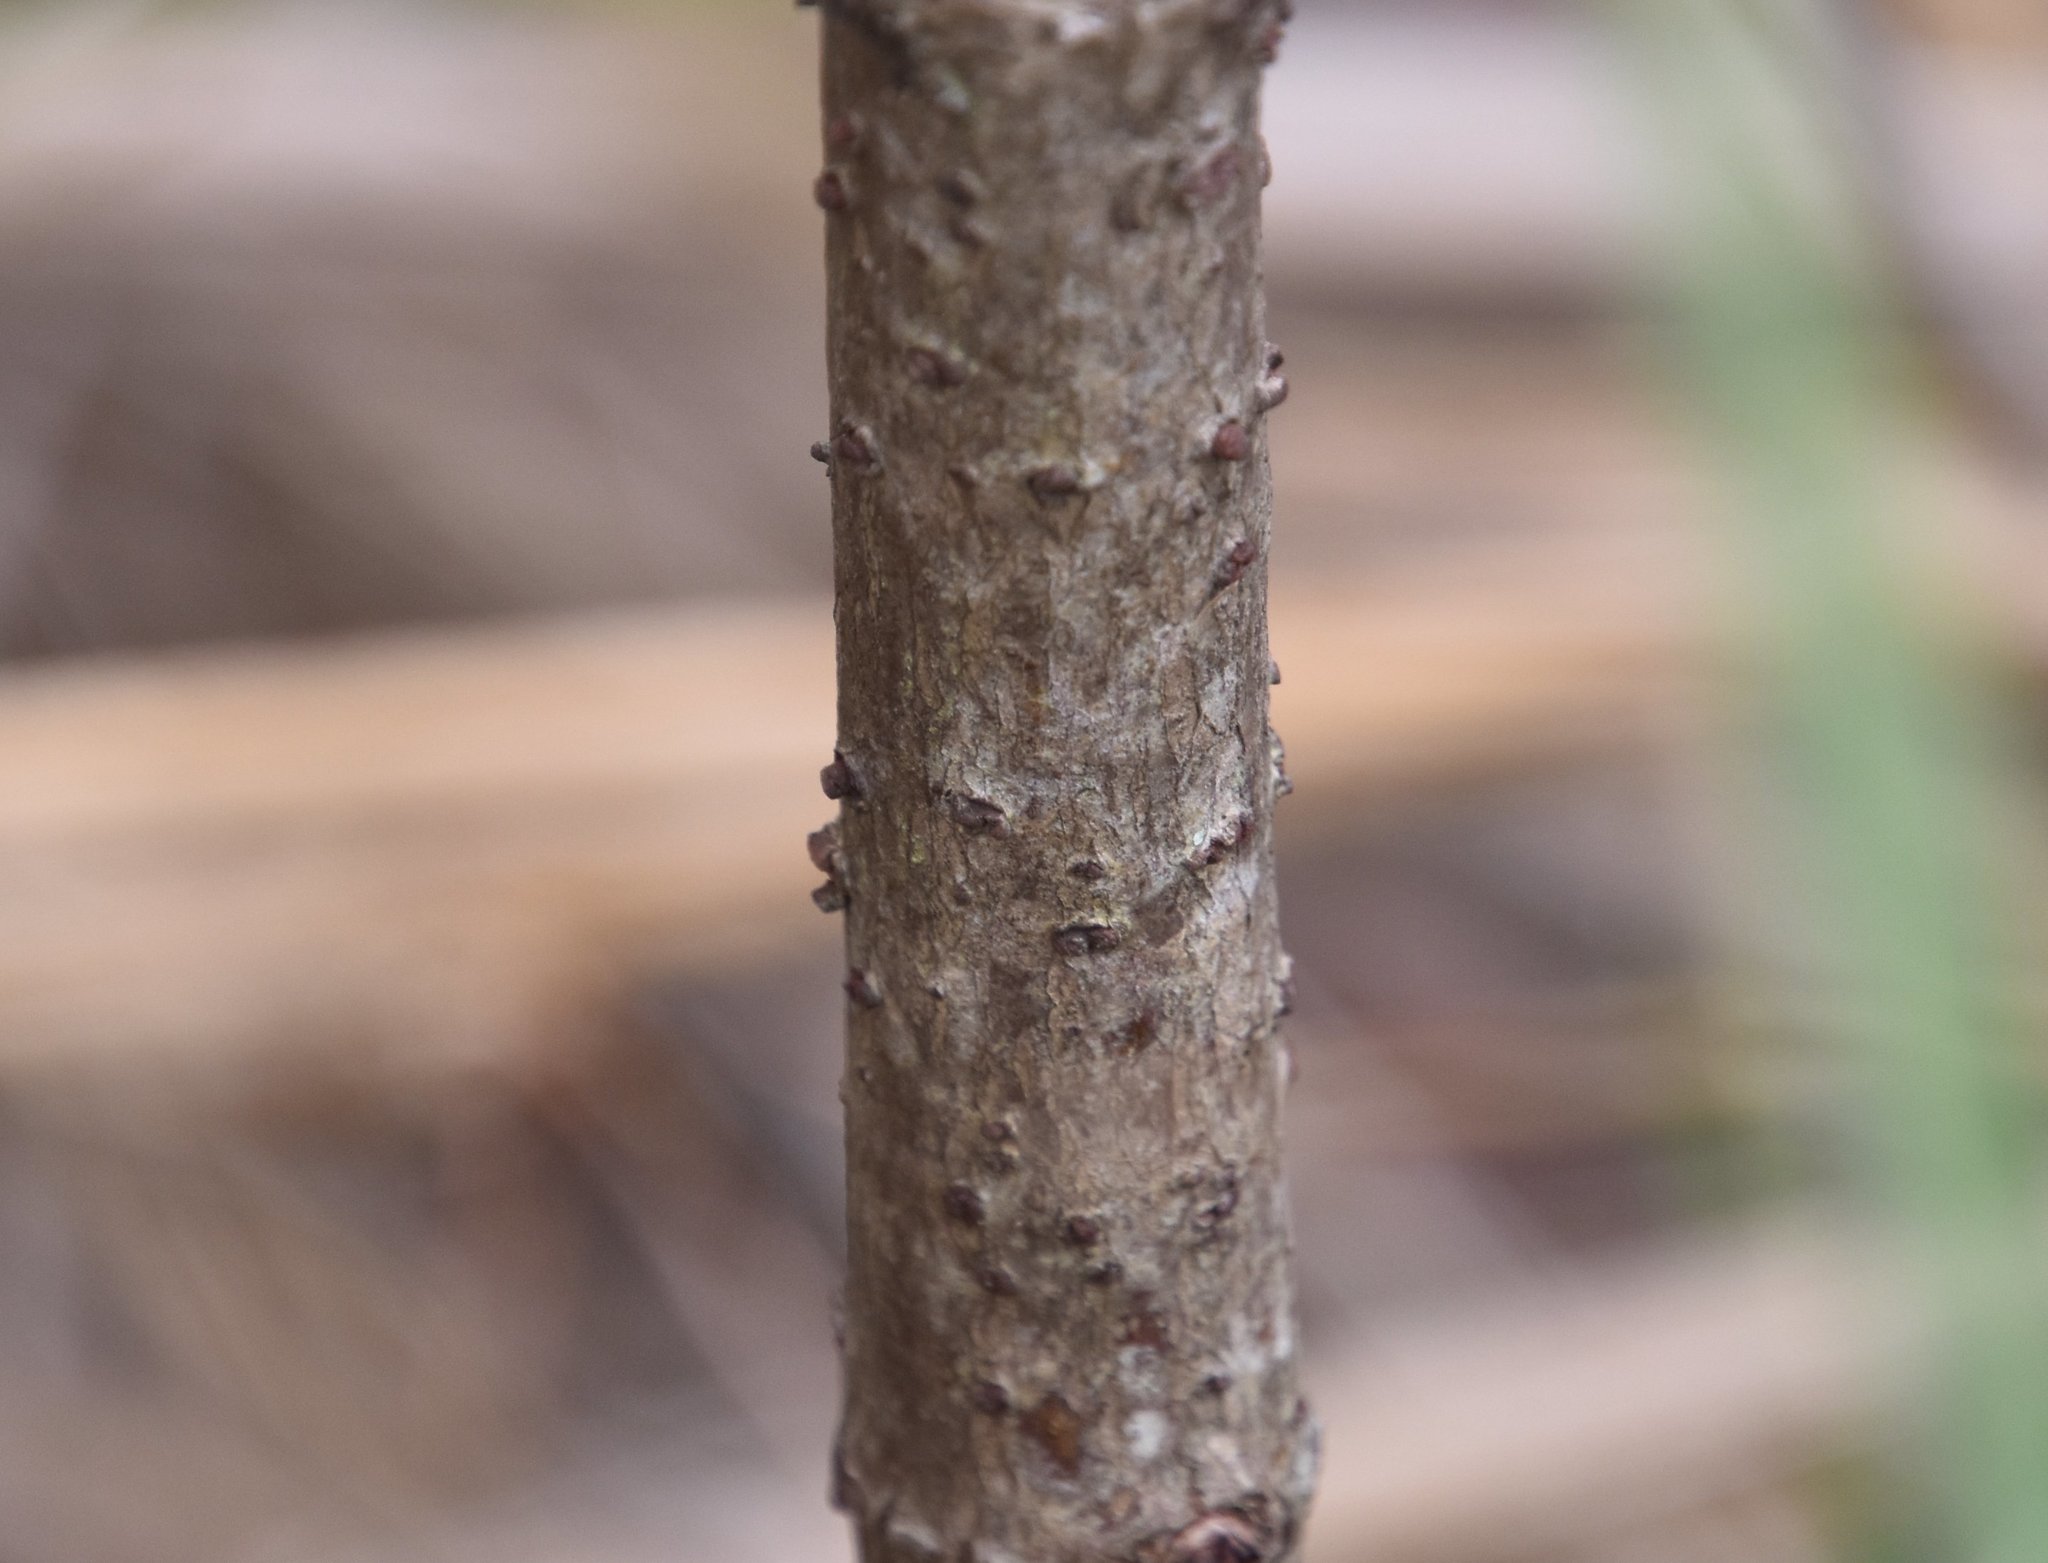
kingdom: Plantae
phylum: Tracheophyta
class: Magnoliopsida
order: Dipsacales
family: Viburnaceae
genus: Sambucus
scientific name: Sambucus canadensis
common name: American elder
